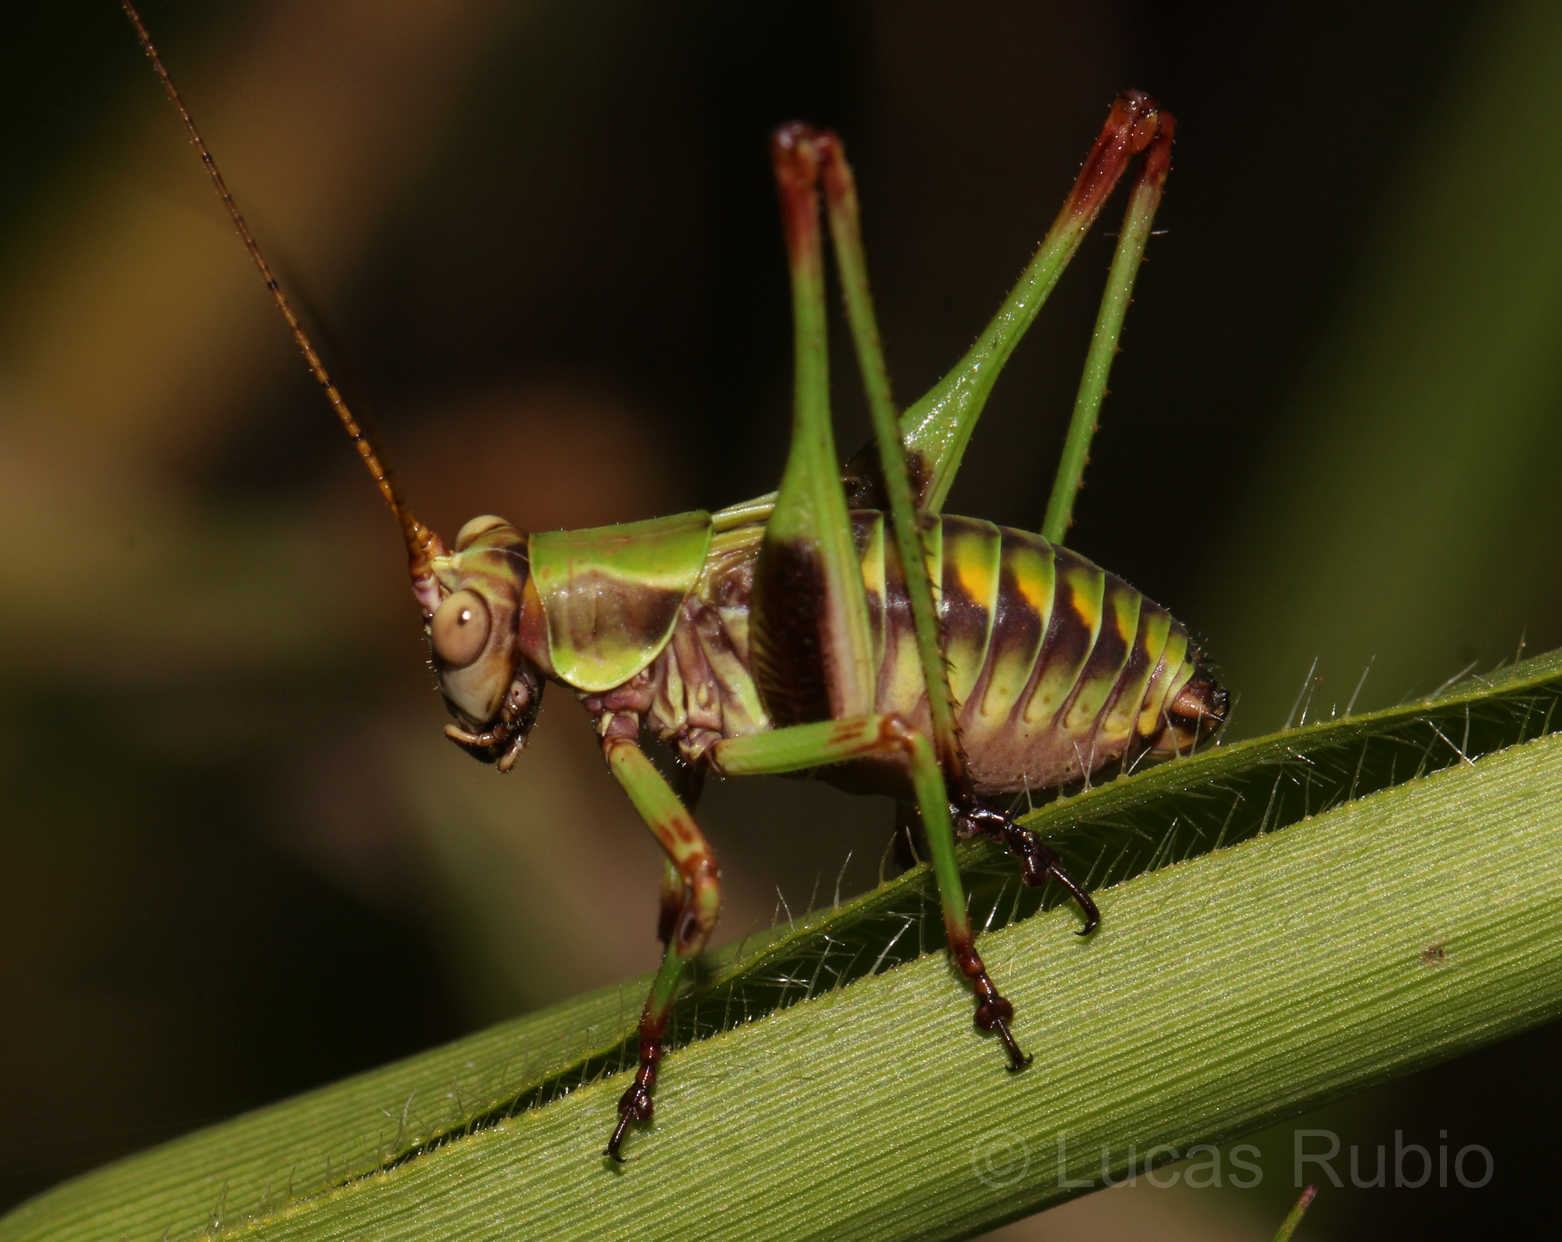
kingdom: Animalia
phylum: Arthropoda
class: Insecta
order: Orthoptera
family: Tettigoniidae
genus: Enthephippion
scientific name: Enthephippion olivaceum
